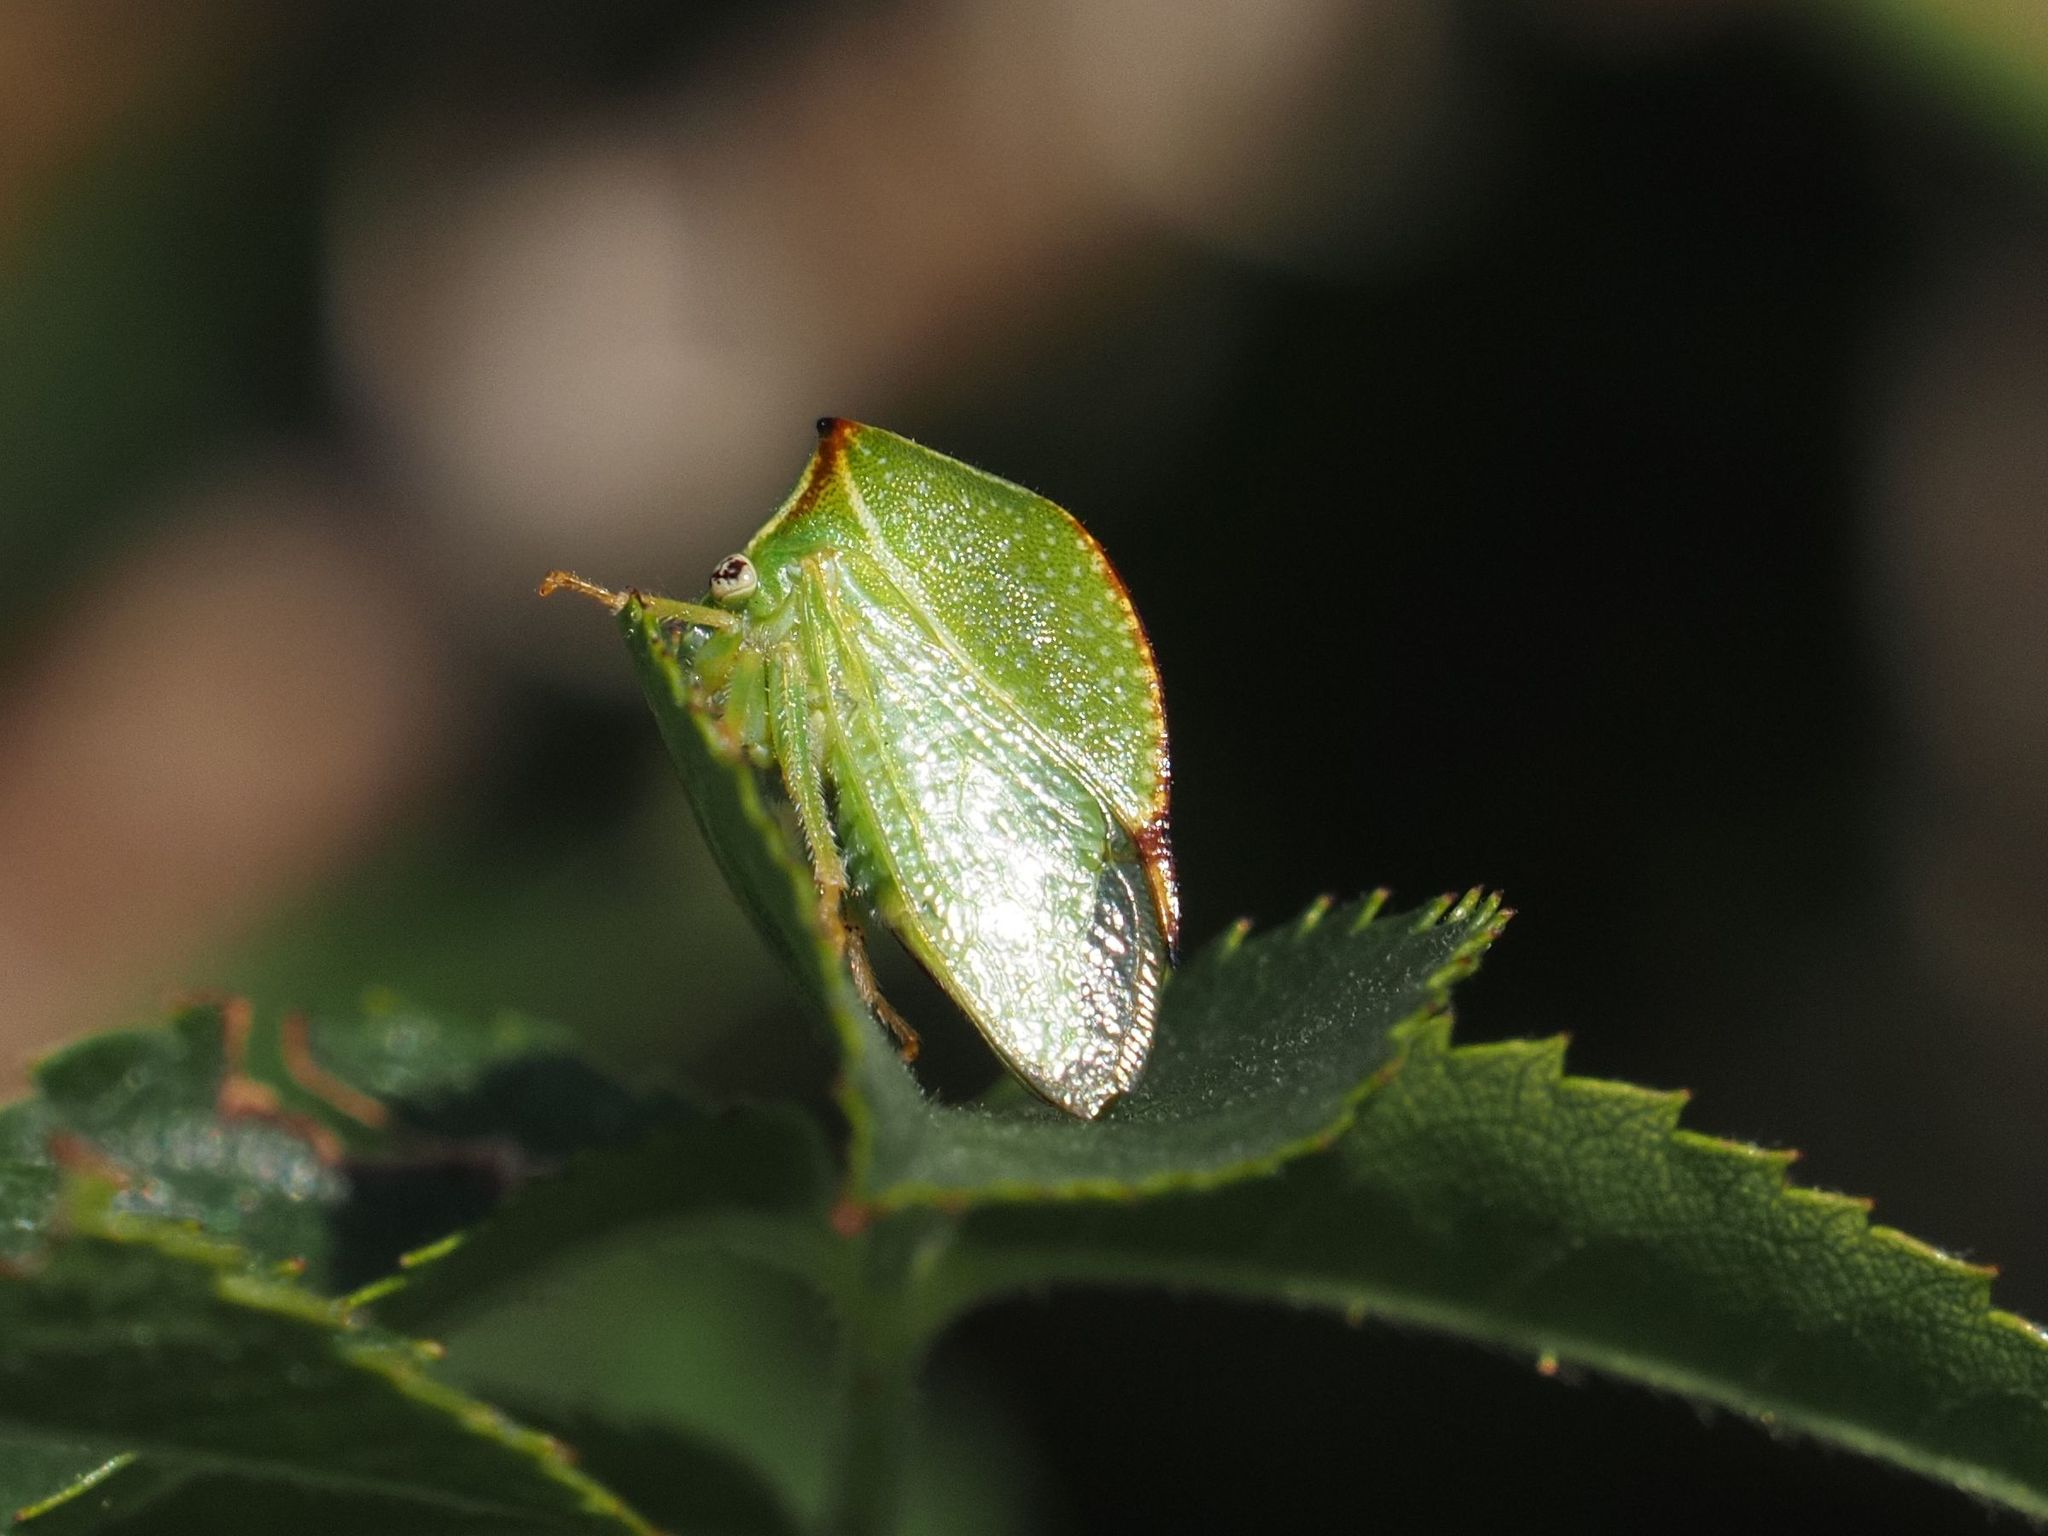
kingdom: Animalia
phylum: Arthropoda
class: Insecta
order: Hemiptera
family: Membracidae
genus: Stictocephala
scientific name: Stictocephala bisonia
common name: American buffalo treehopper
